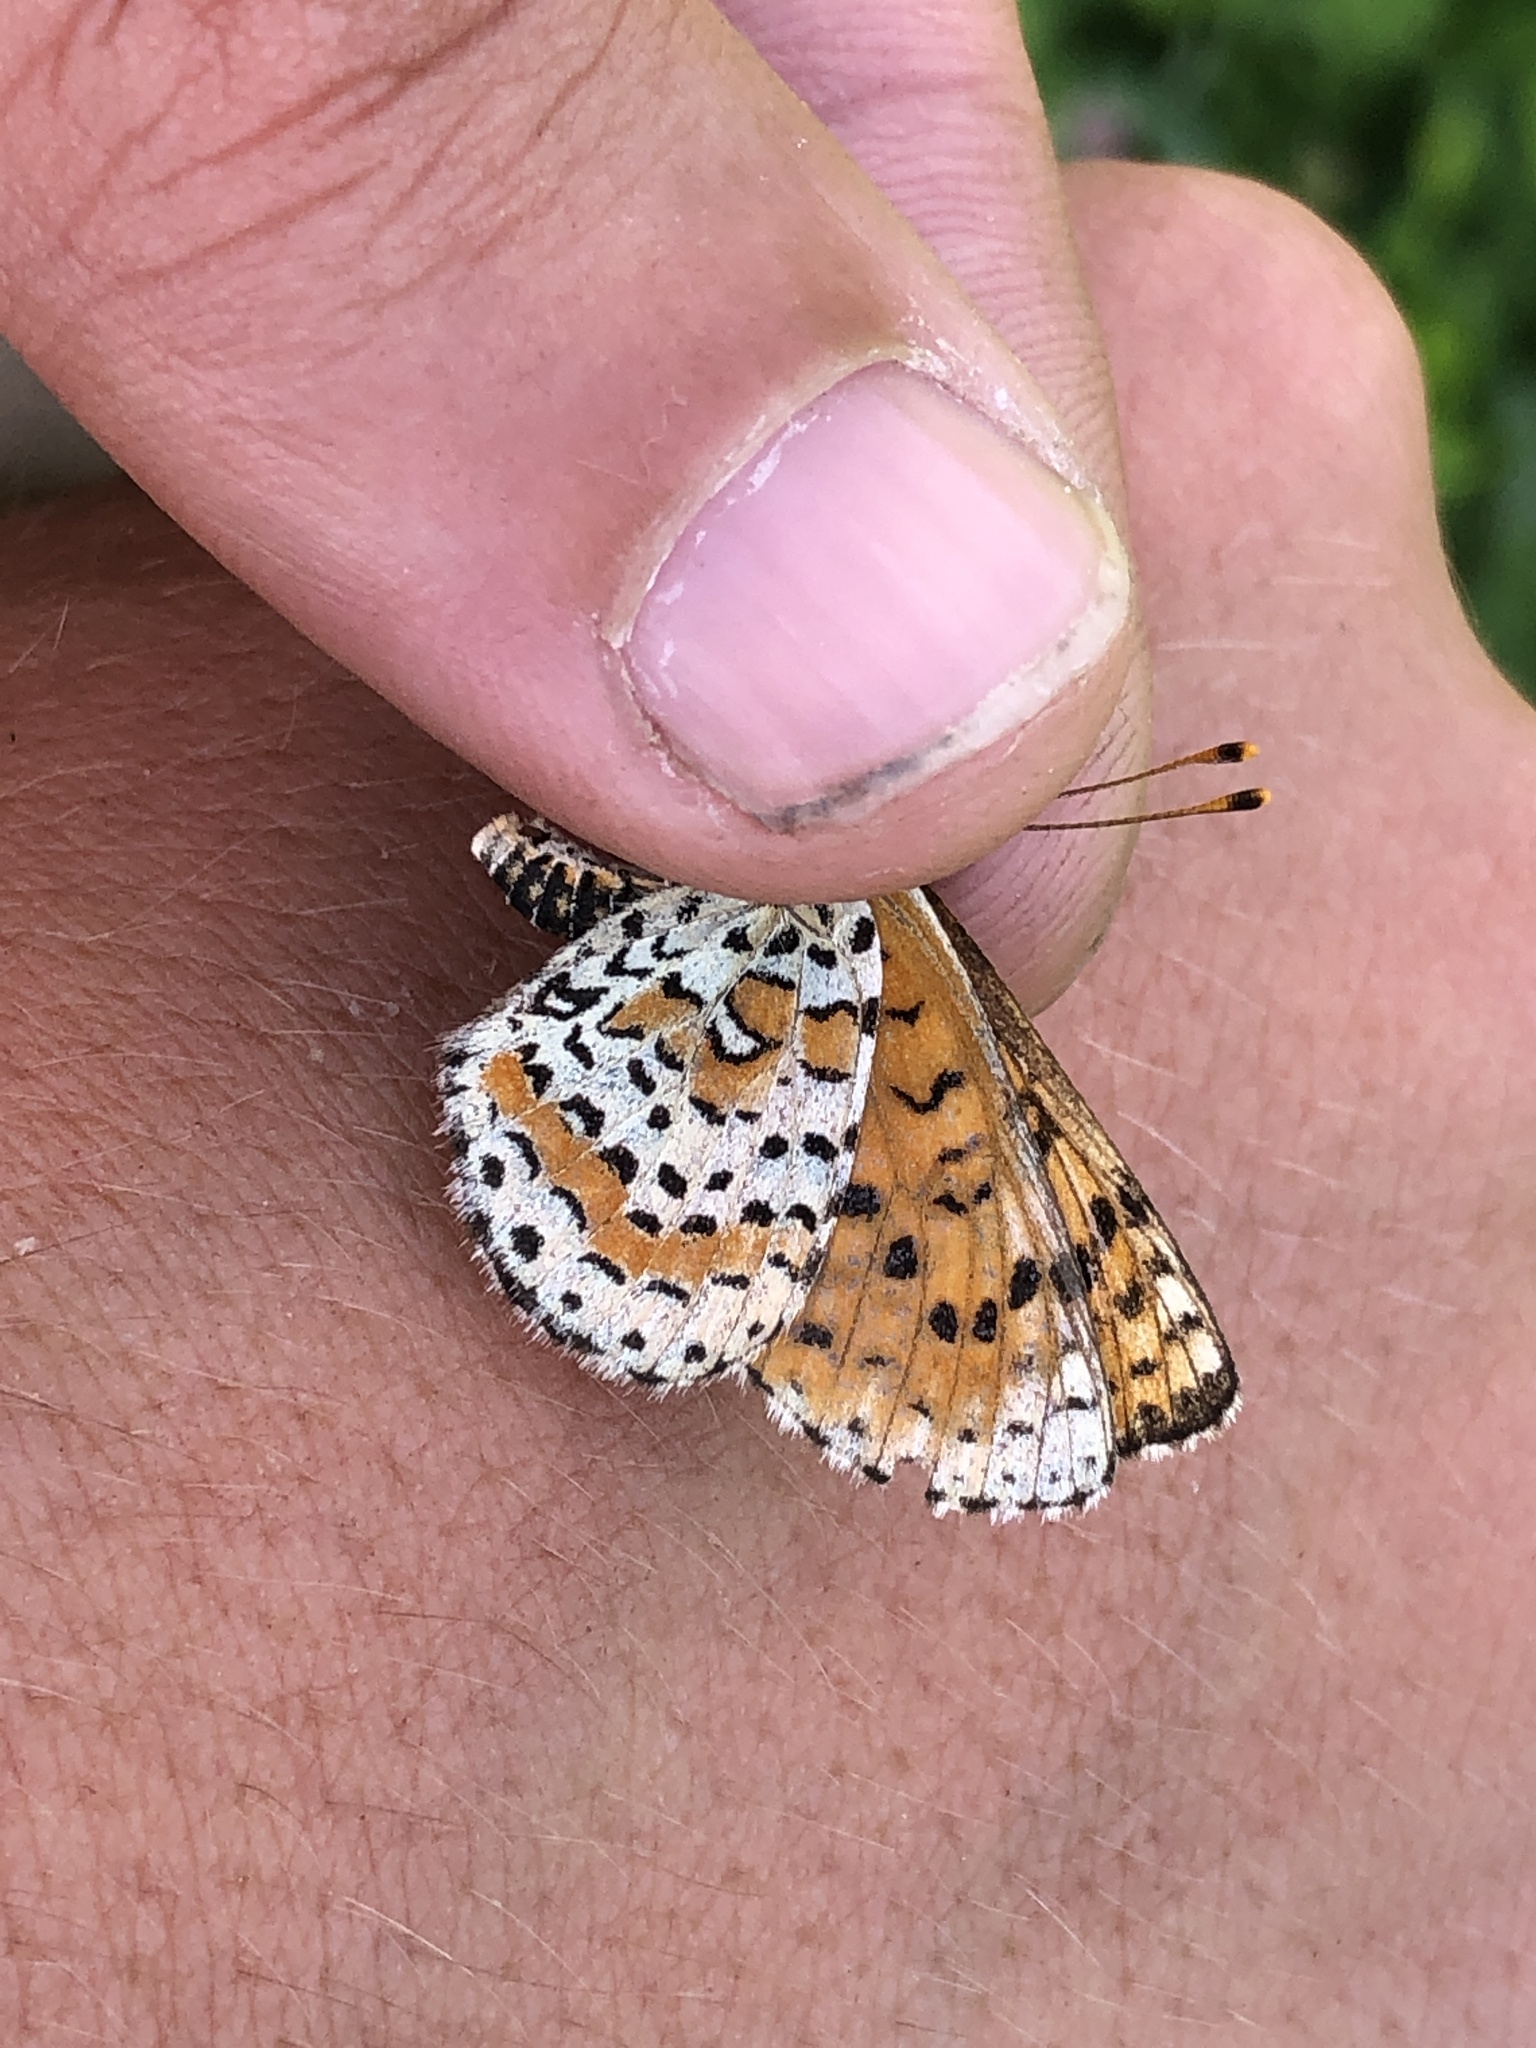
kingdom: Animalia
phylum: Arthropoda
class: Insecta
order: Lepidoptera
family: Nymphalidae
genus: Melitaea
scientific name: Melitaea didyma
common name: Spotted fritillary
